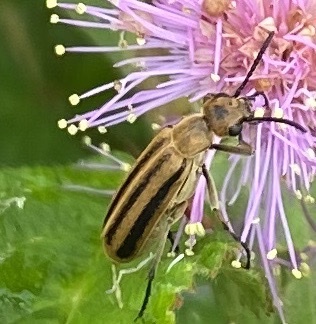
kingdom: Animalia
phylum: Arthropoda
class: Insecta
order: Coleoptera
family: Meloidae
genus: Epicauta
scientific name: Epicauta strigosa
